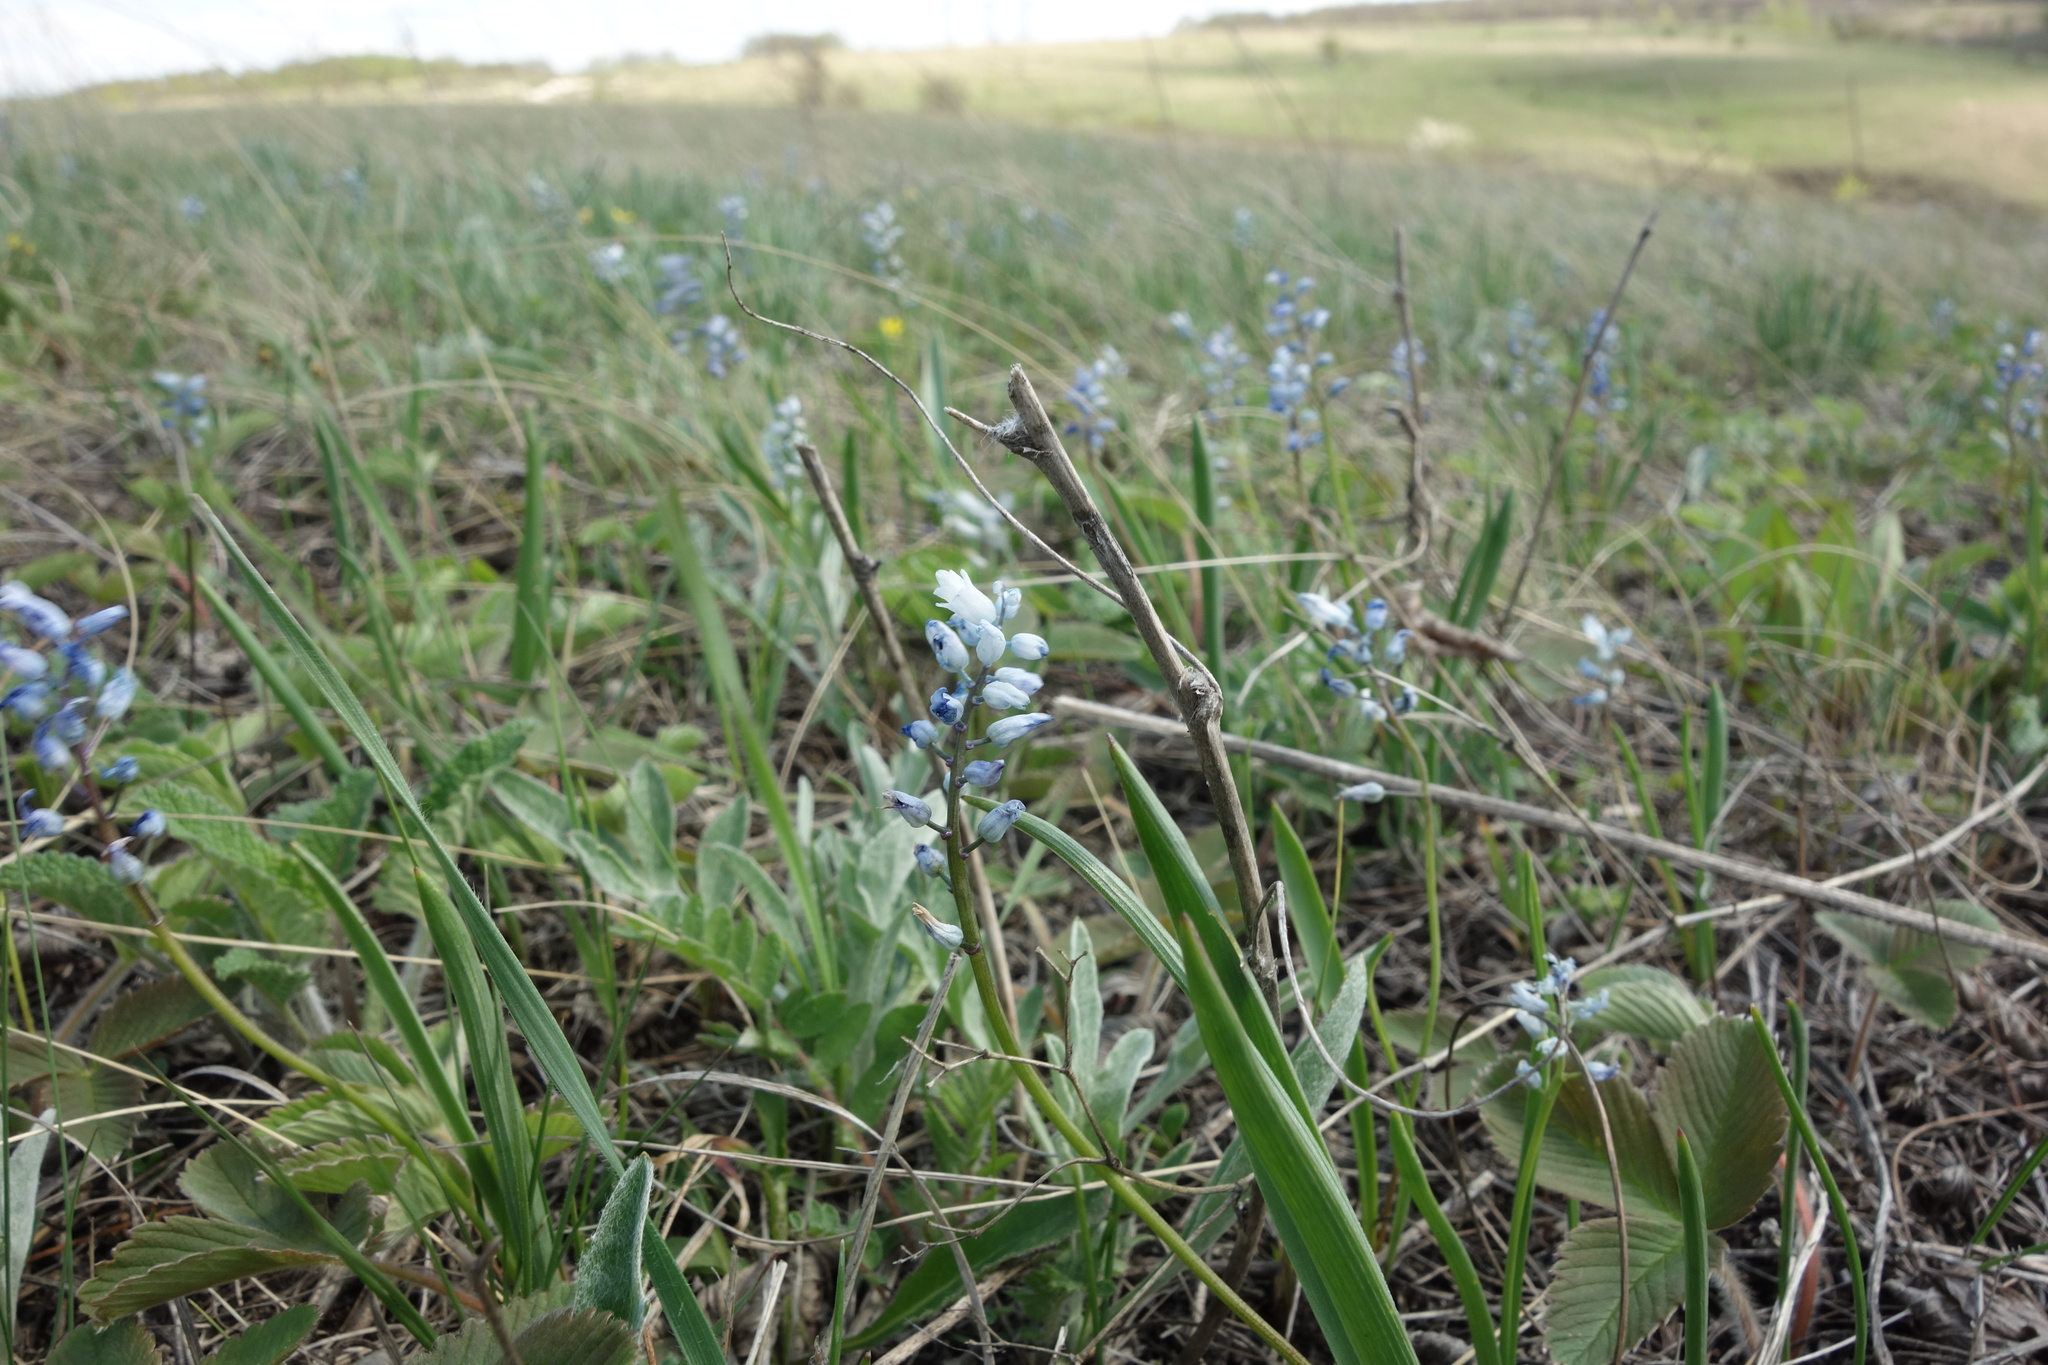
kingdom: Plantae
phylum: Tracheophyta
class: Liliopsida
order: Asparagales
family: Asparagaceae
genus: Hyacinthella
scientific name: Hyacinthella leucophaea
